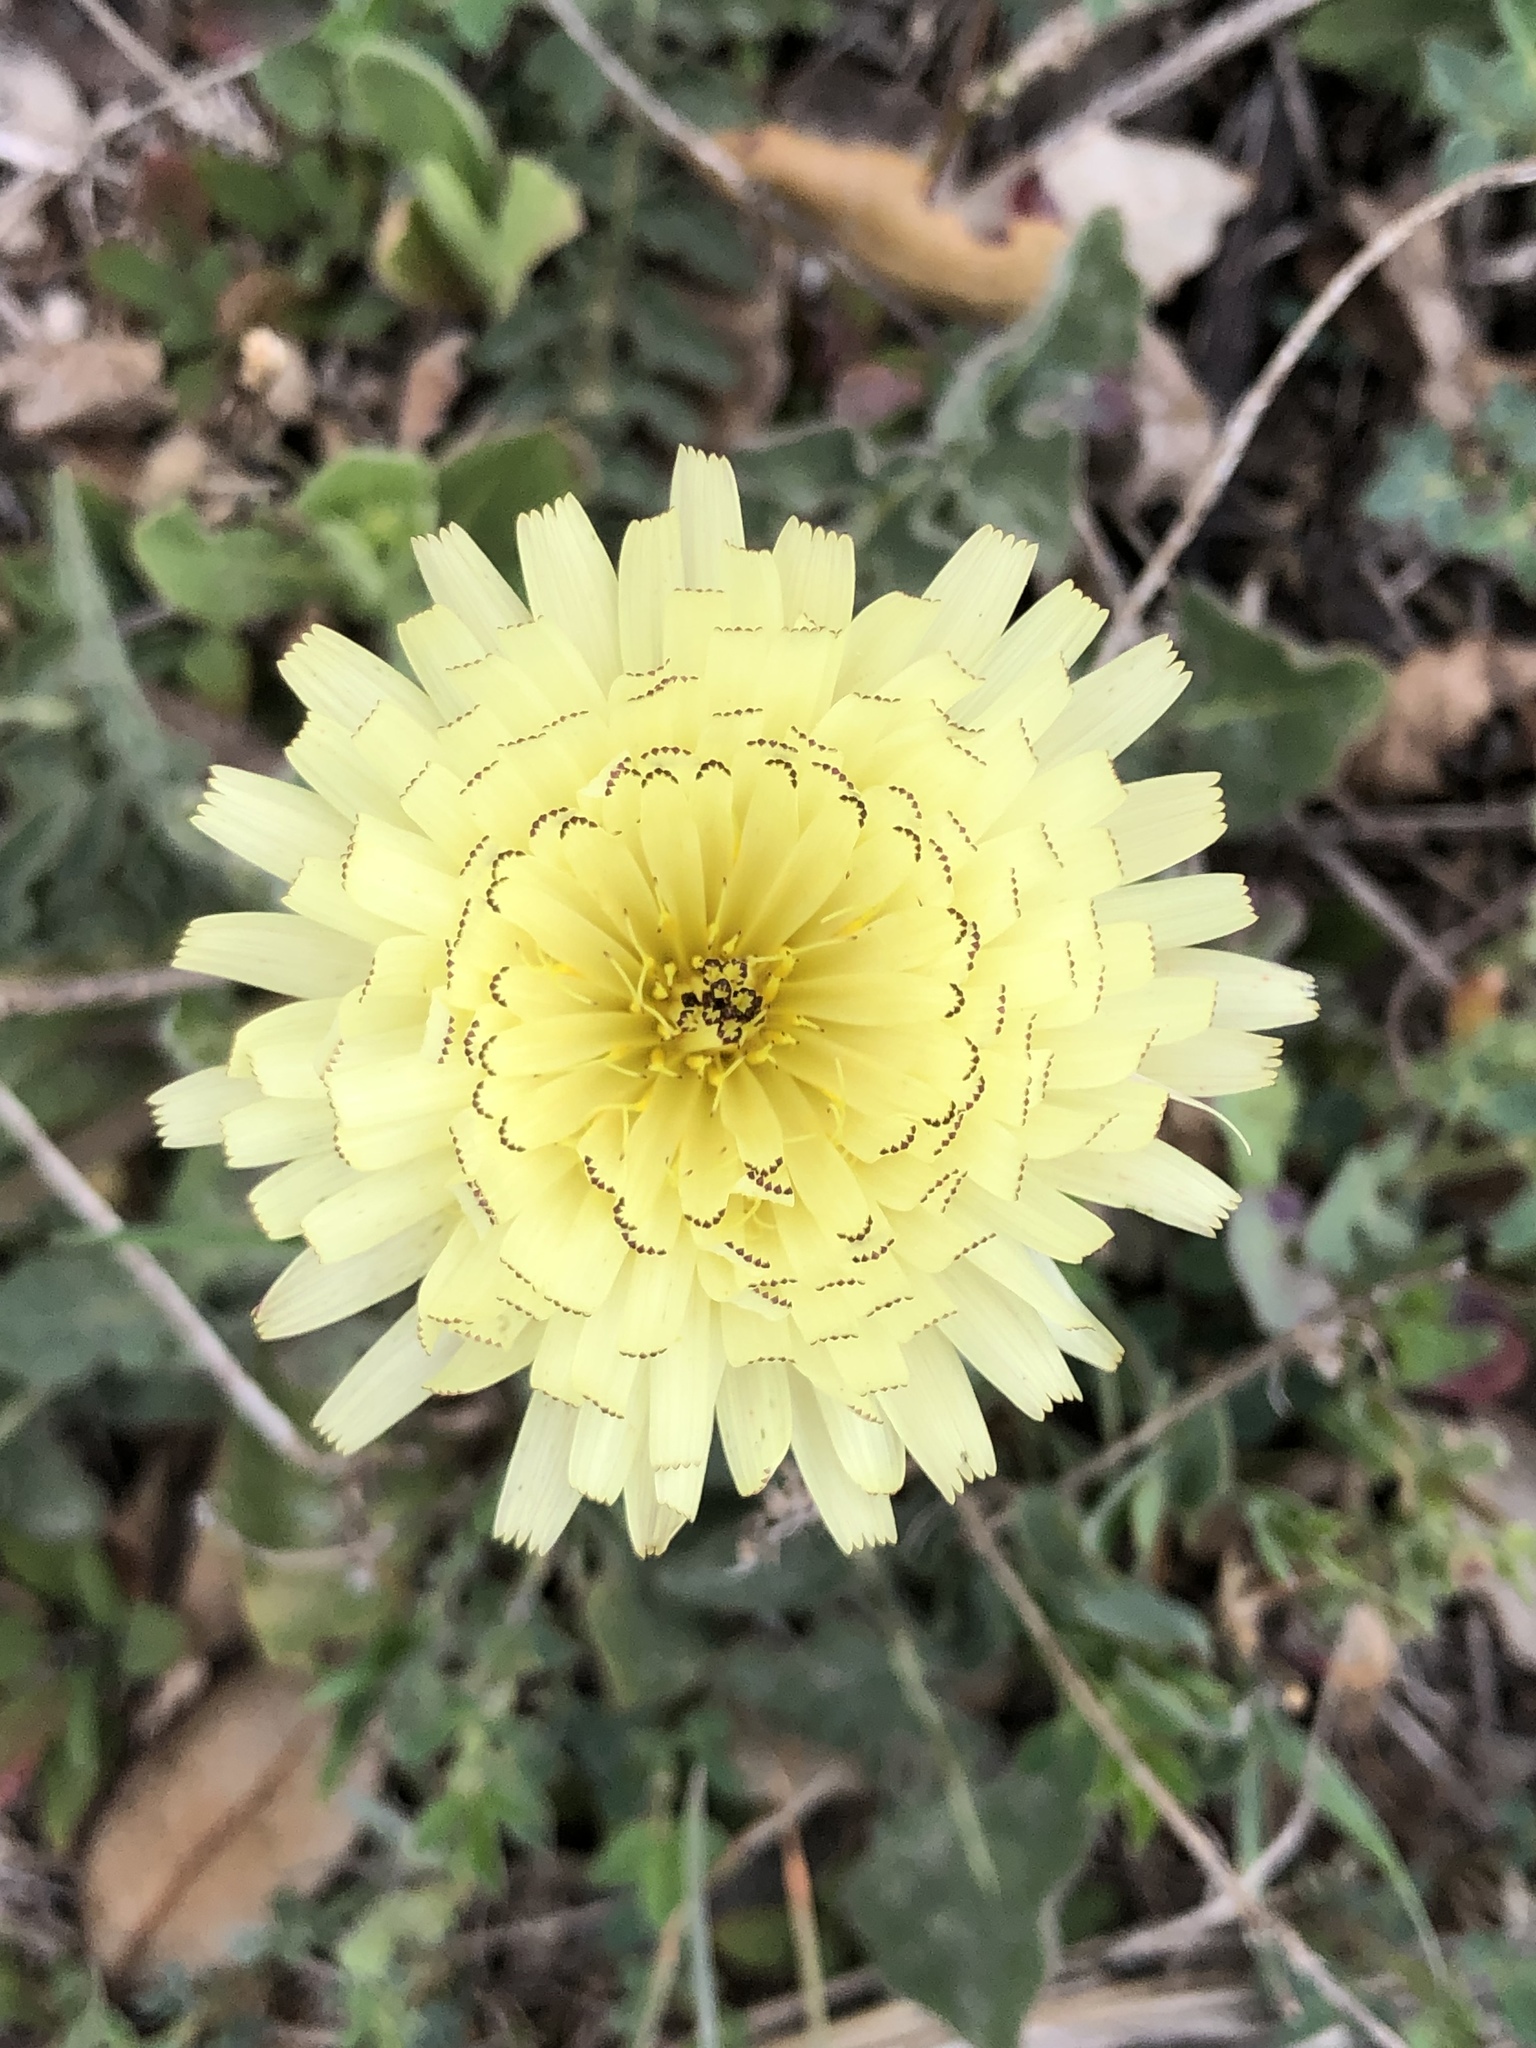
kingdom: Plantae
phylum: Tracheophyta
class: Magnoliopsida
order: Asterales
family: Asteraceae
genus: Urospermum
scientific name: Urospermum dalechampii
